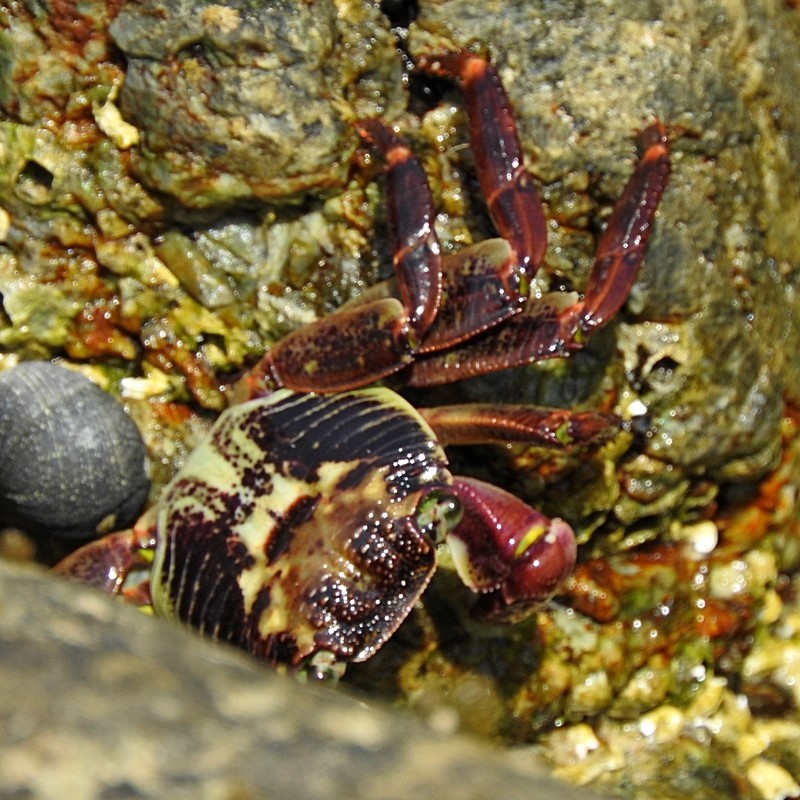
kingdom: Animalia
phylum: Arthropoda
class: Malacostraca
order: Decapoda
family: Grapsidae
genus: Leptograpsus
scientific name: Leptograpsus variegatus
